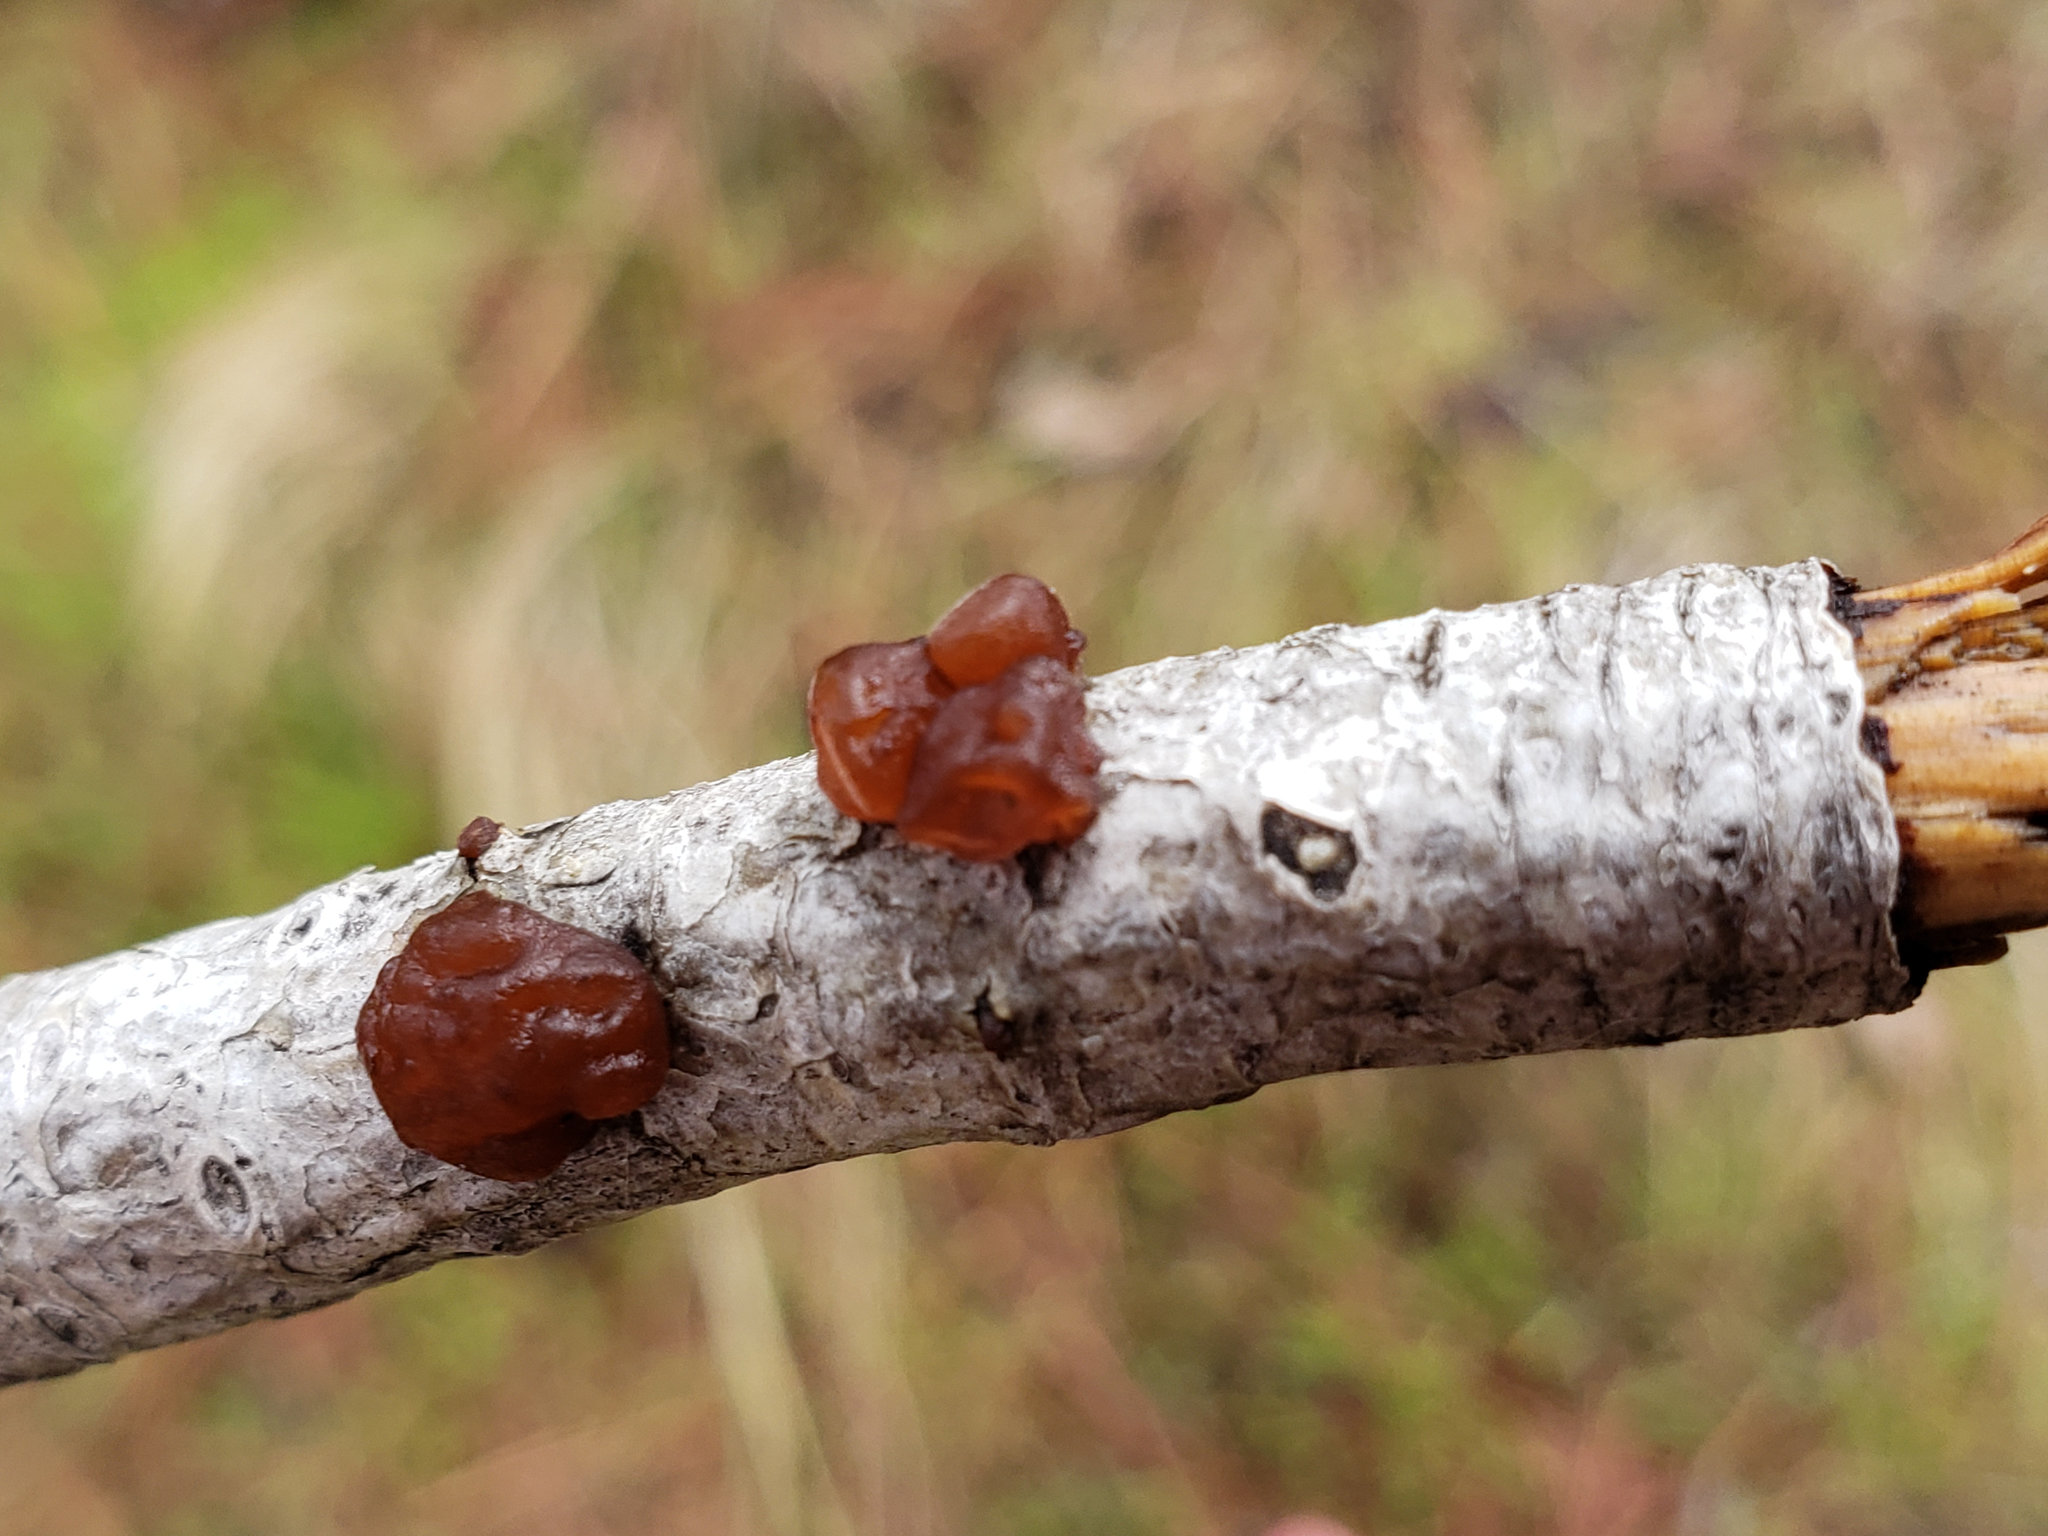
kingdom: Fungi
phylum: Basidiomycota
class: Agaricomycetes
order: Auriculariales
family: Auriculariaceae
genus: Exidia
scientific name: Exidia
